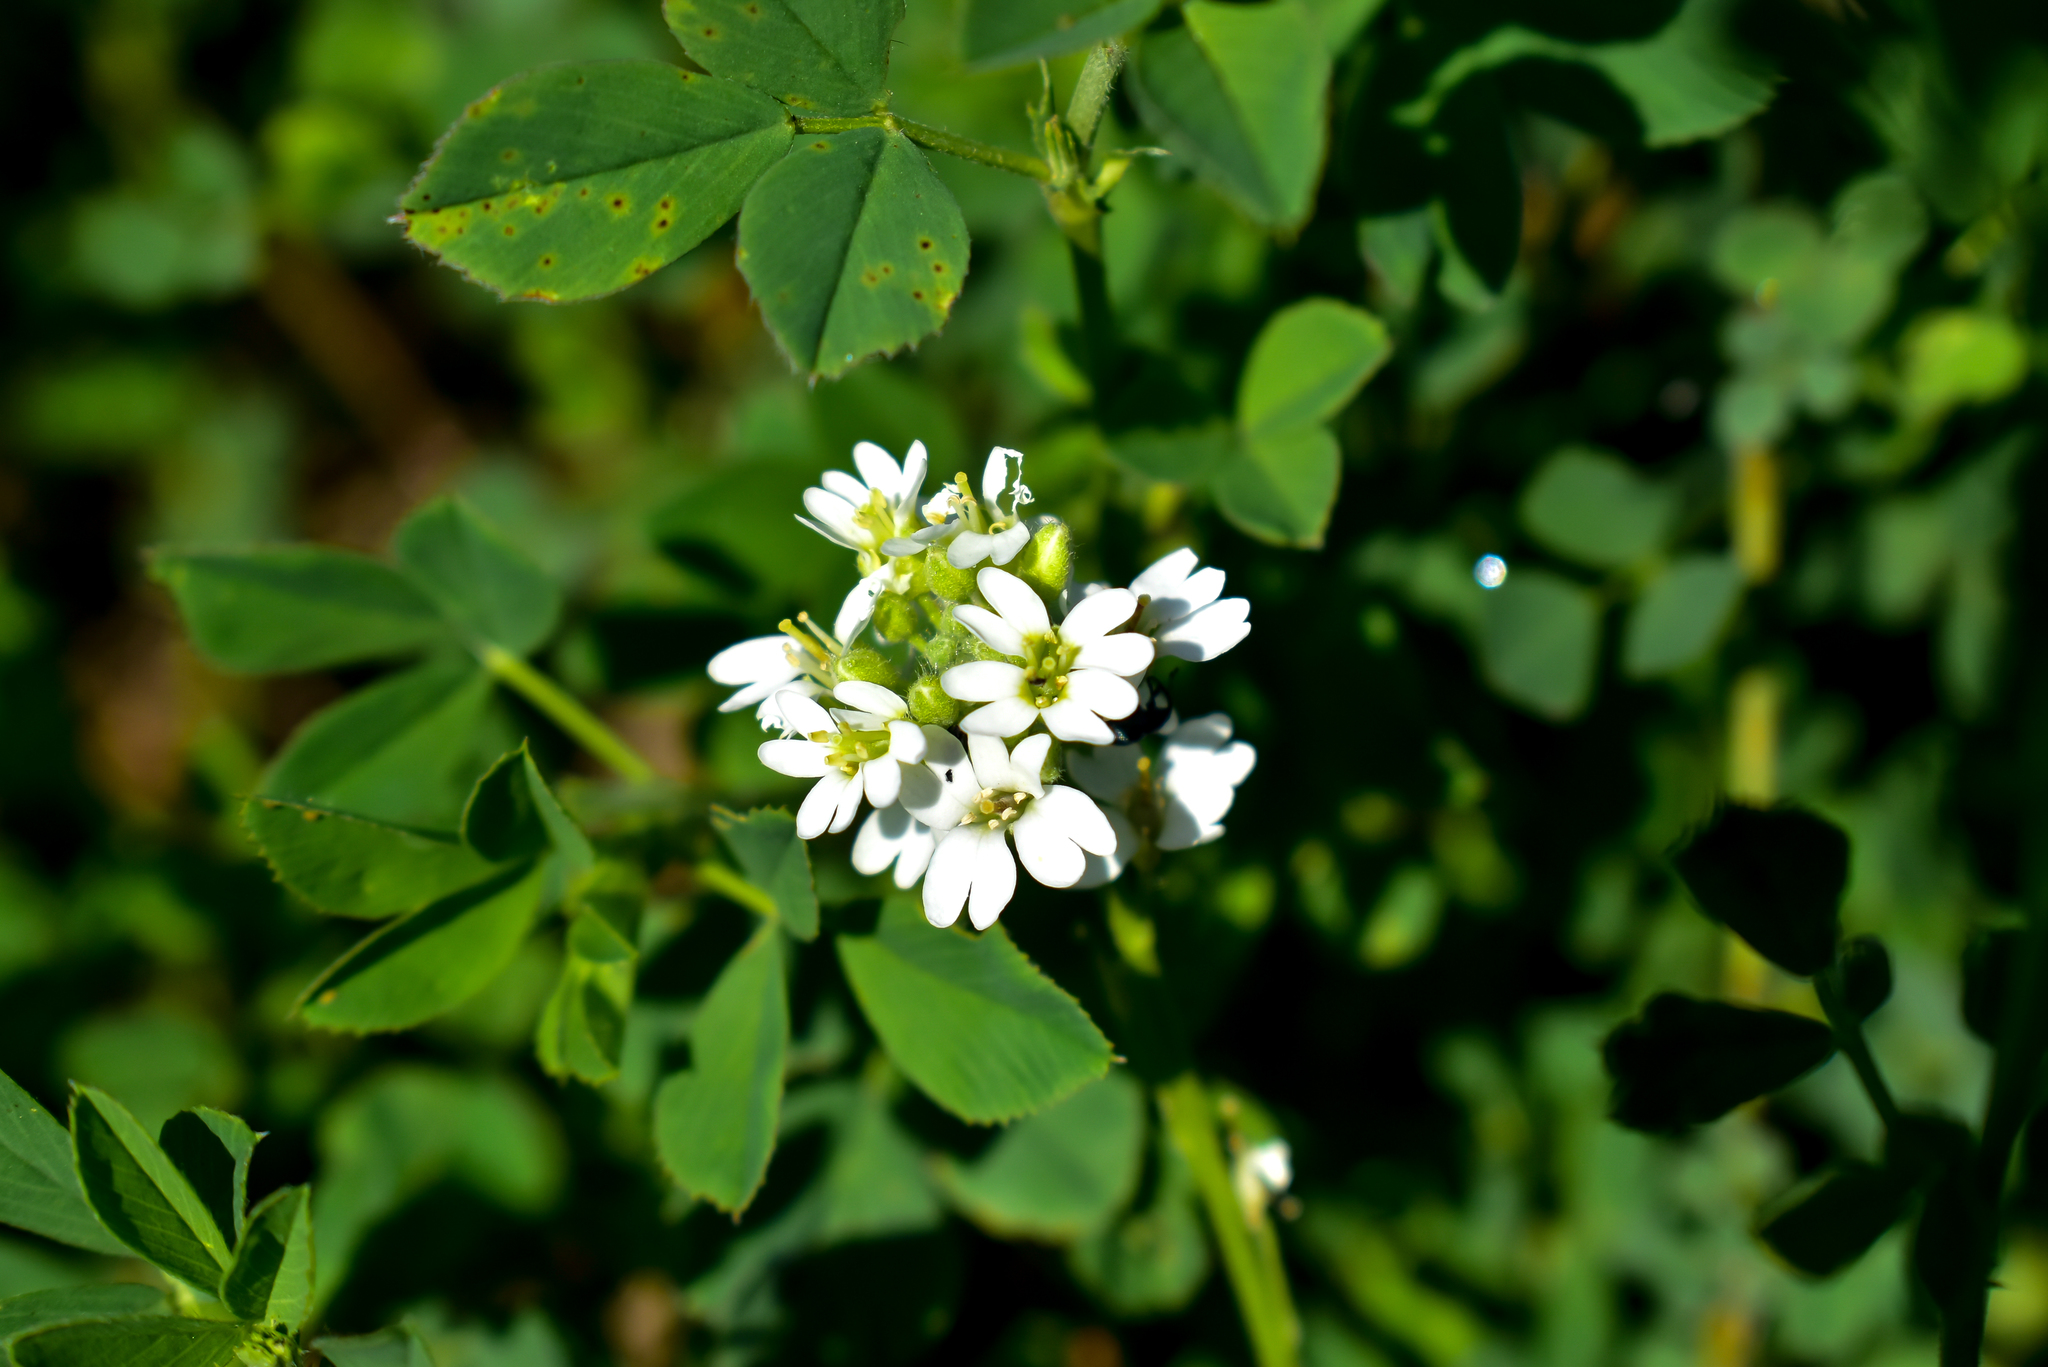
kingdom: Plantae
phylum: Tracheophyta
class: Magnoliopsida
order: Brassicales
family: Brassicaceae
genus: Berteroa
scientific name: Berteroa incana
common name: Hoary alison
